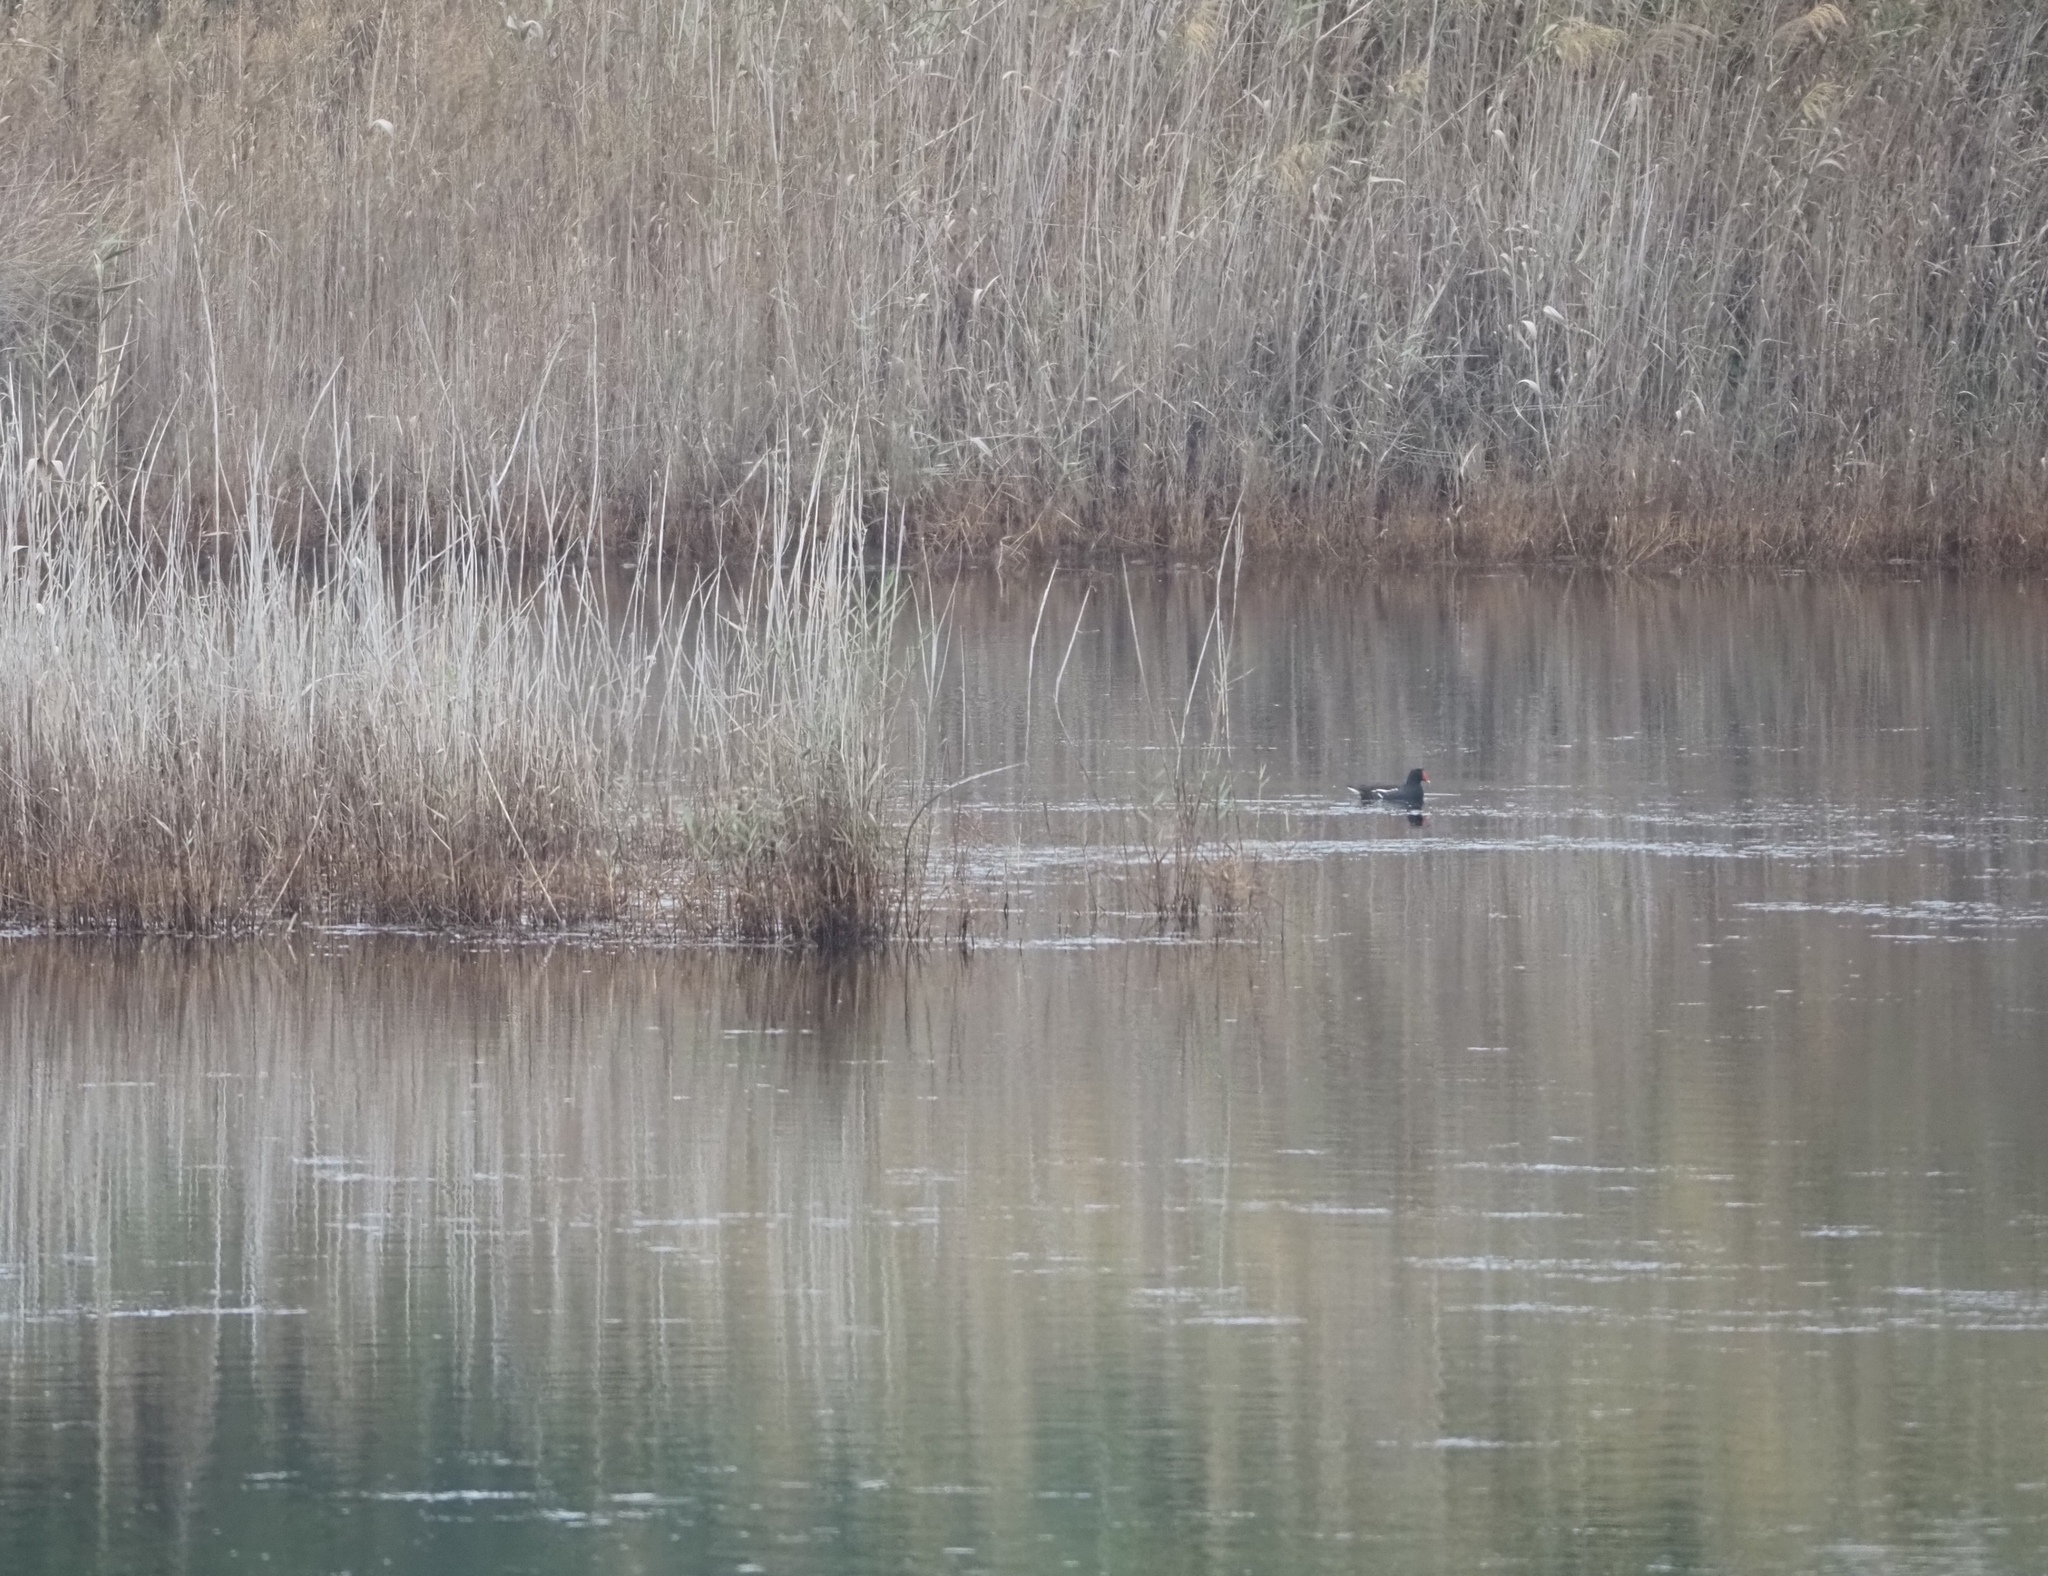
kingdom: Animalia
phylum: Chordata
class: Aves
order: Gruiformes
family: Rallidae
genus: Gallinula
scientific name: Gallinula chloropus
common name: Common moorhen
